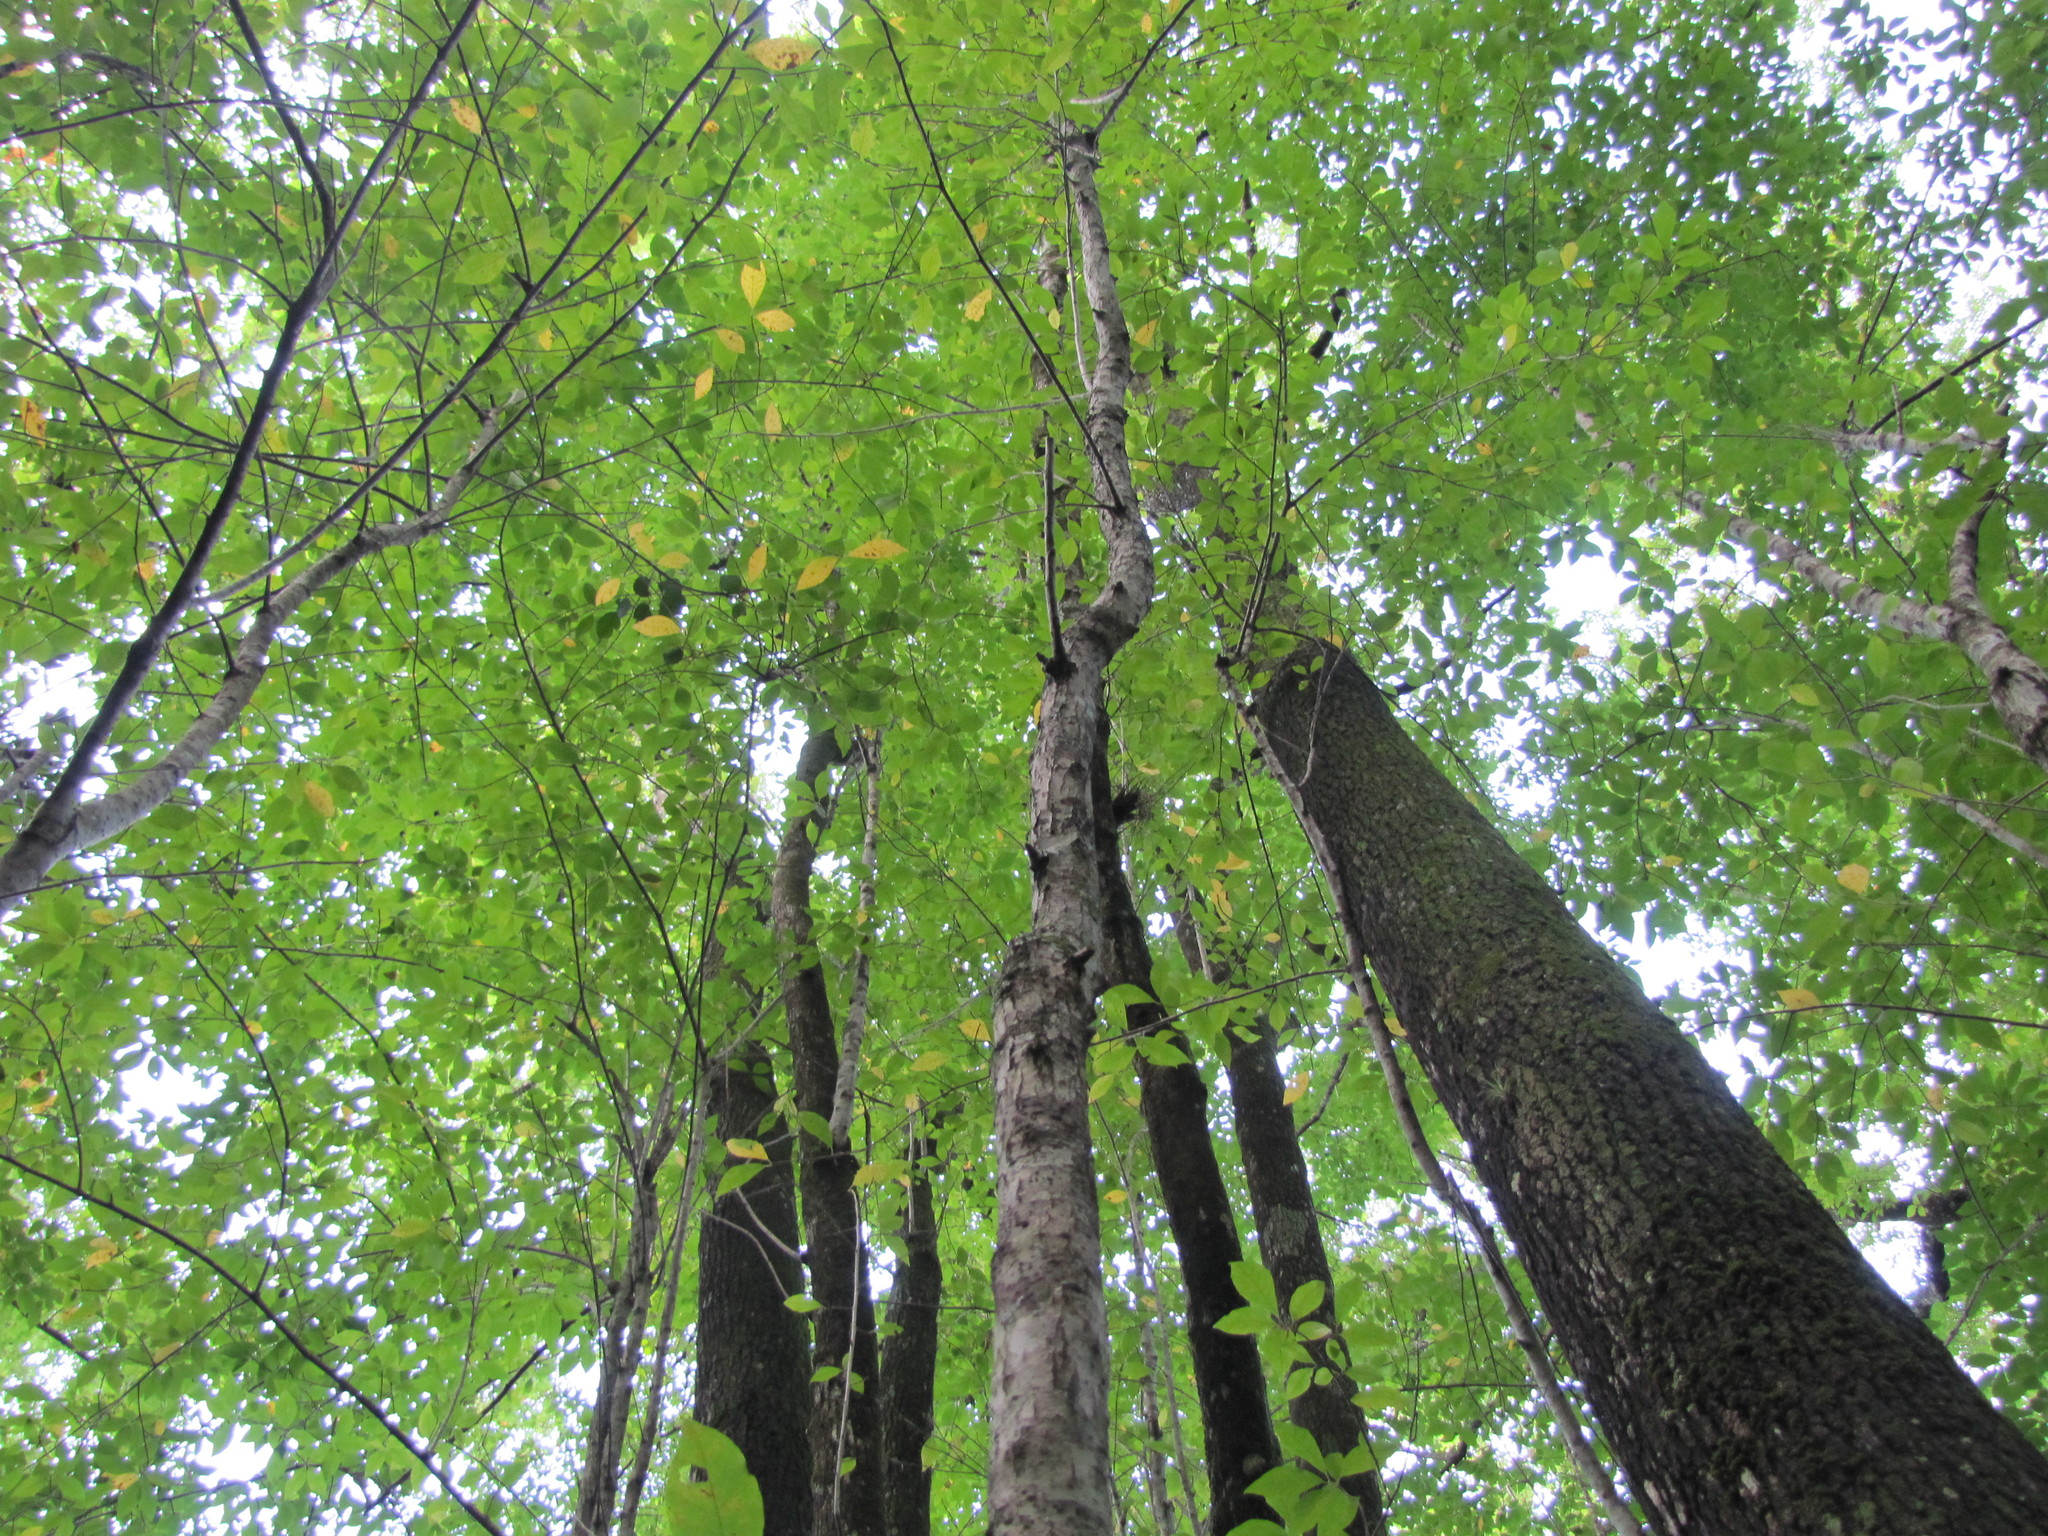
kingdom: Plantae
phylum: Tracheophyta
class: Magnoliopsida
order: Cornales
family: Nyssaceae
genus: Nyssa
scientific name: Nyssa sylvatica
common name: Black tupelo
